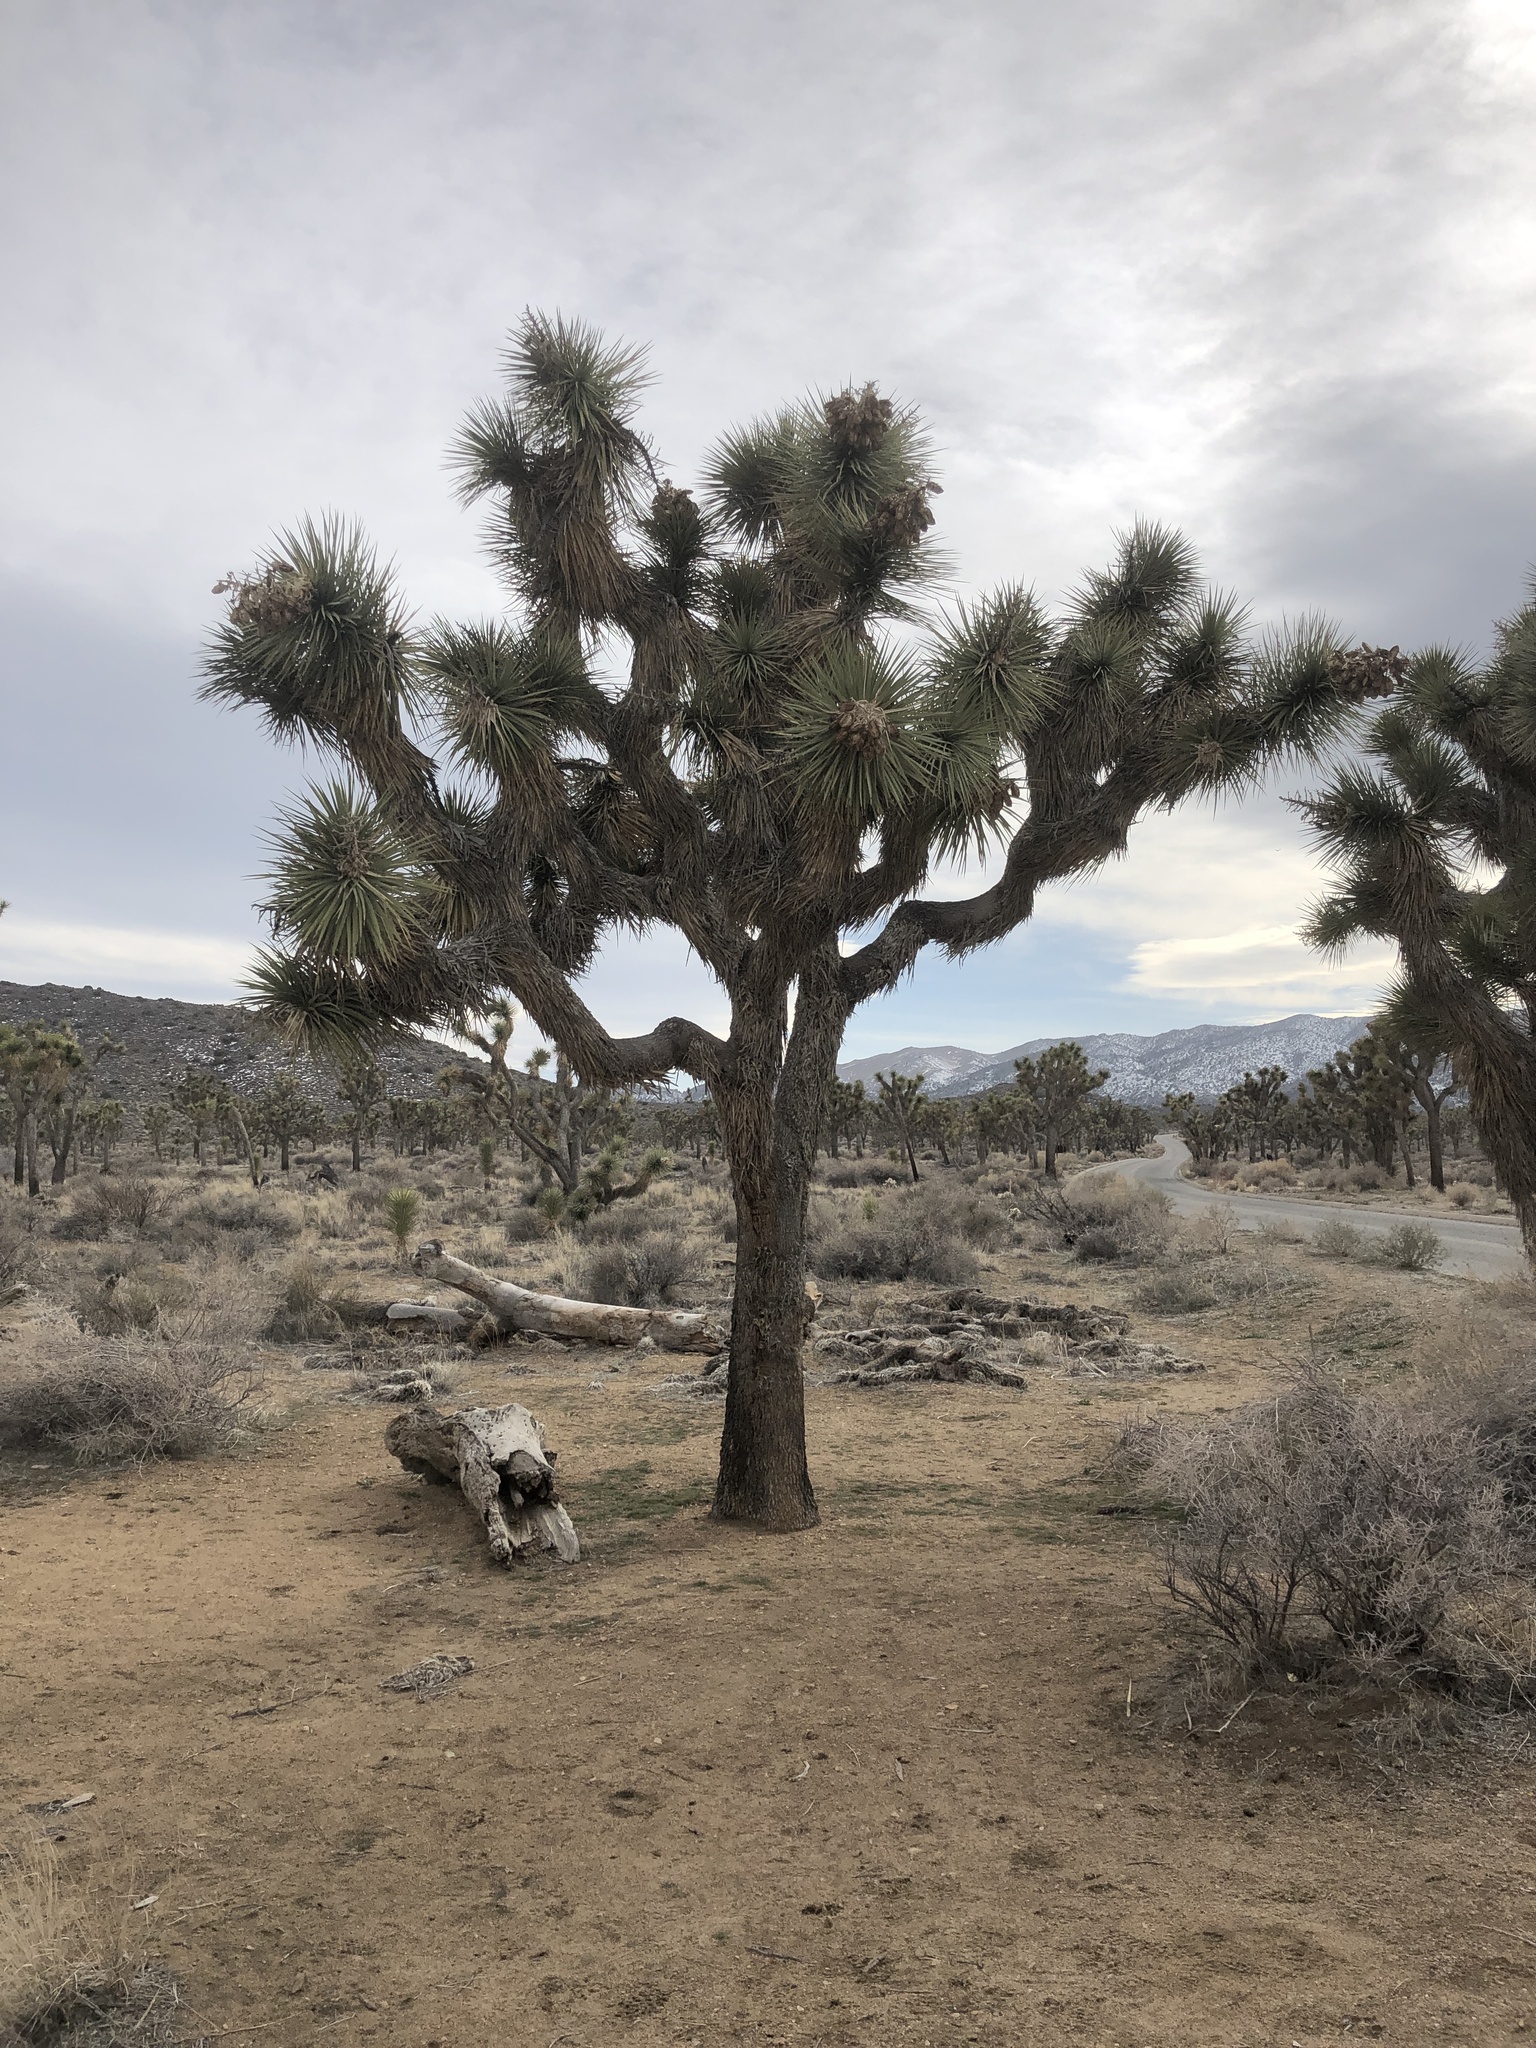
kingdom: Plantae
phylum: Tracheophyta
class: Liliopsida
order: Asparagales
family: Asparagaceae
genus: Yucca
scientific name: Yucca brevifolia
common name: Joshua tree
